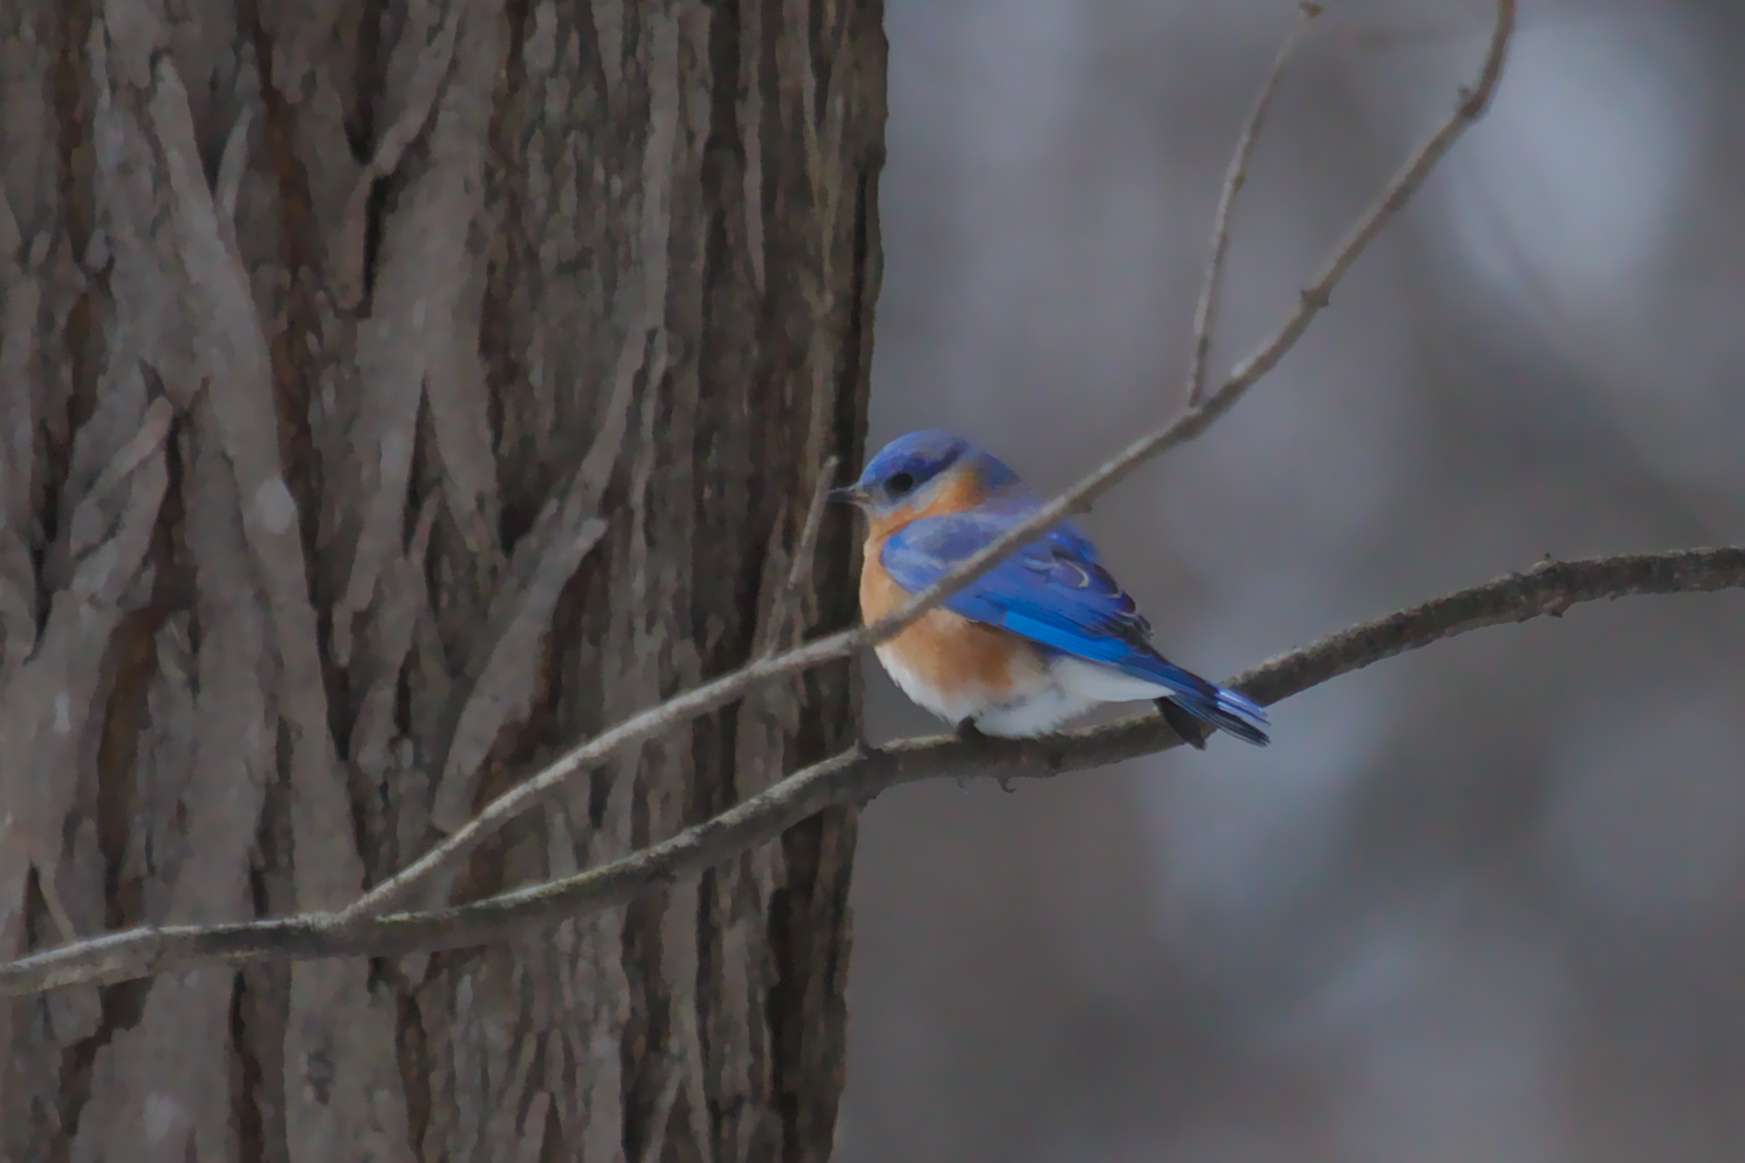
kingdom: Animalia
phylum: Chordata
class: Aves
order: Passeriformes
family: Turdidae
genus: Sialia
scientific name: Sialia sialis
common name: Eastern bluebird
